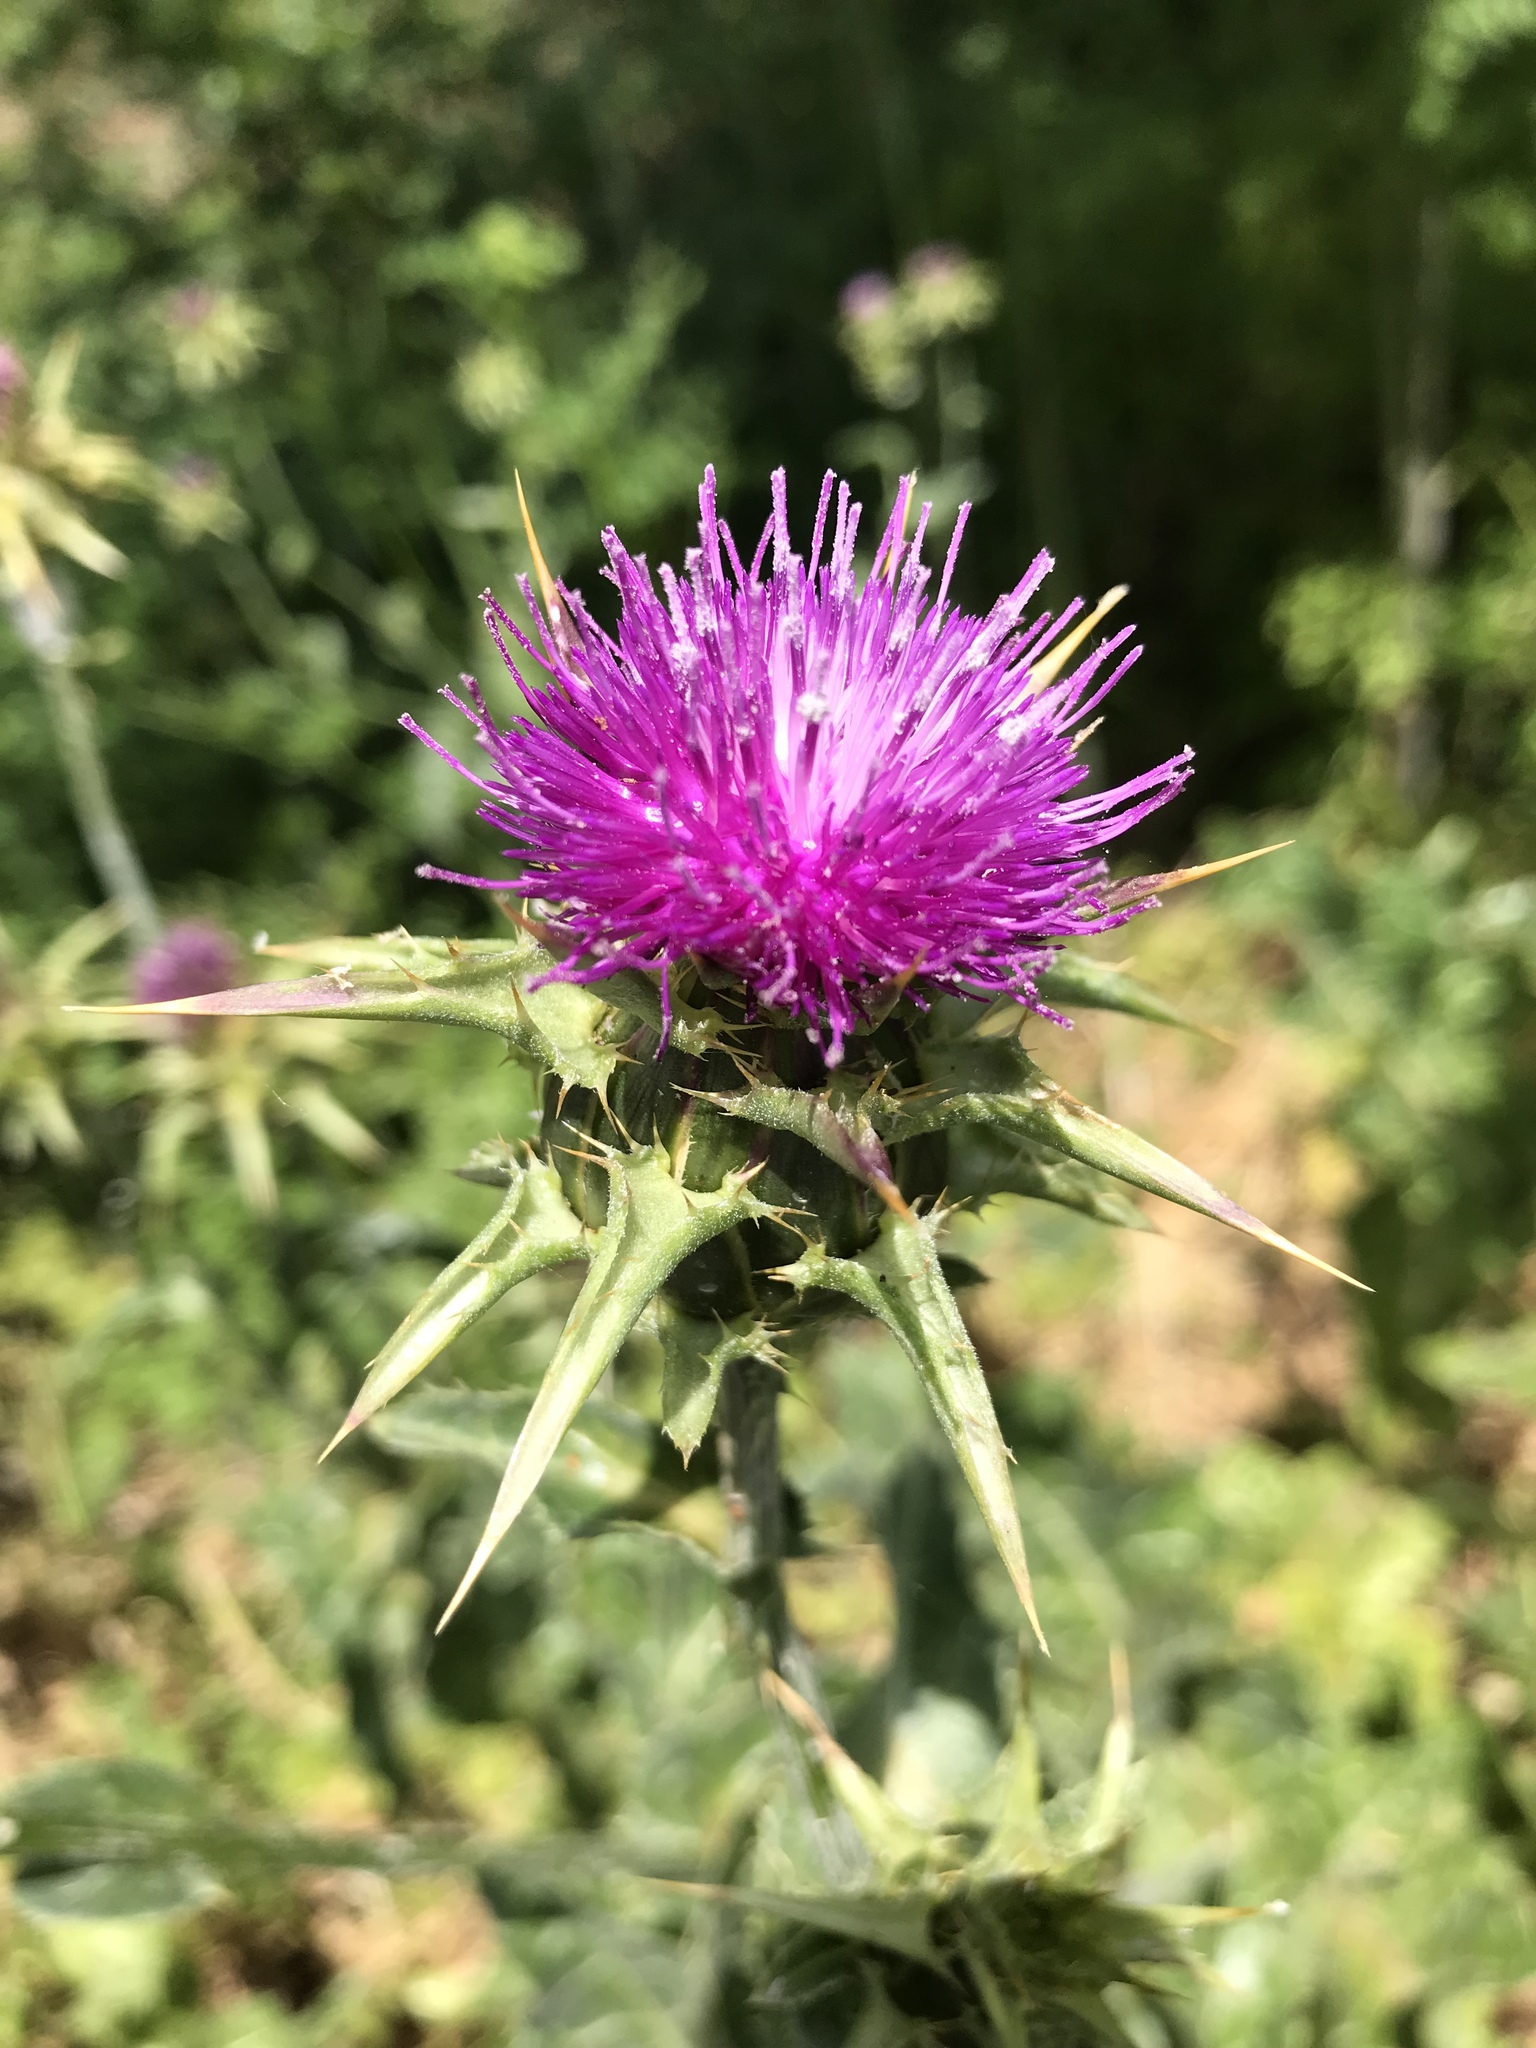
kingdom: Plantae
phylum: Tracheophyta
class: Magnoliopsida
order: Asterales
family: Asteraceae
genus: Silybum
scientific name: Silybum marianum
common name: Milk thistle
